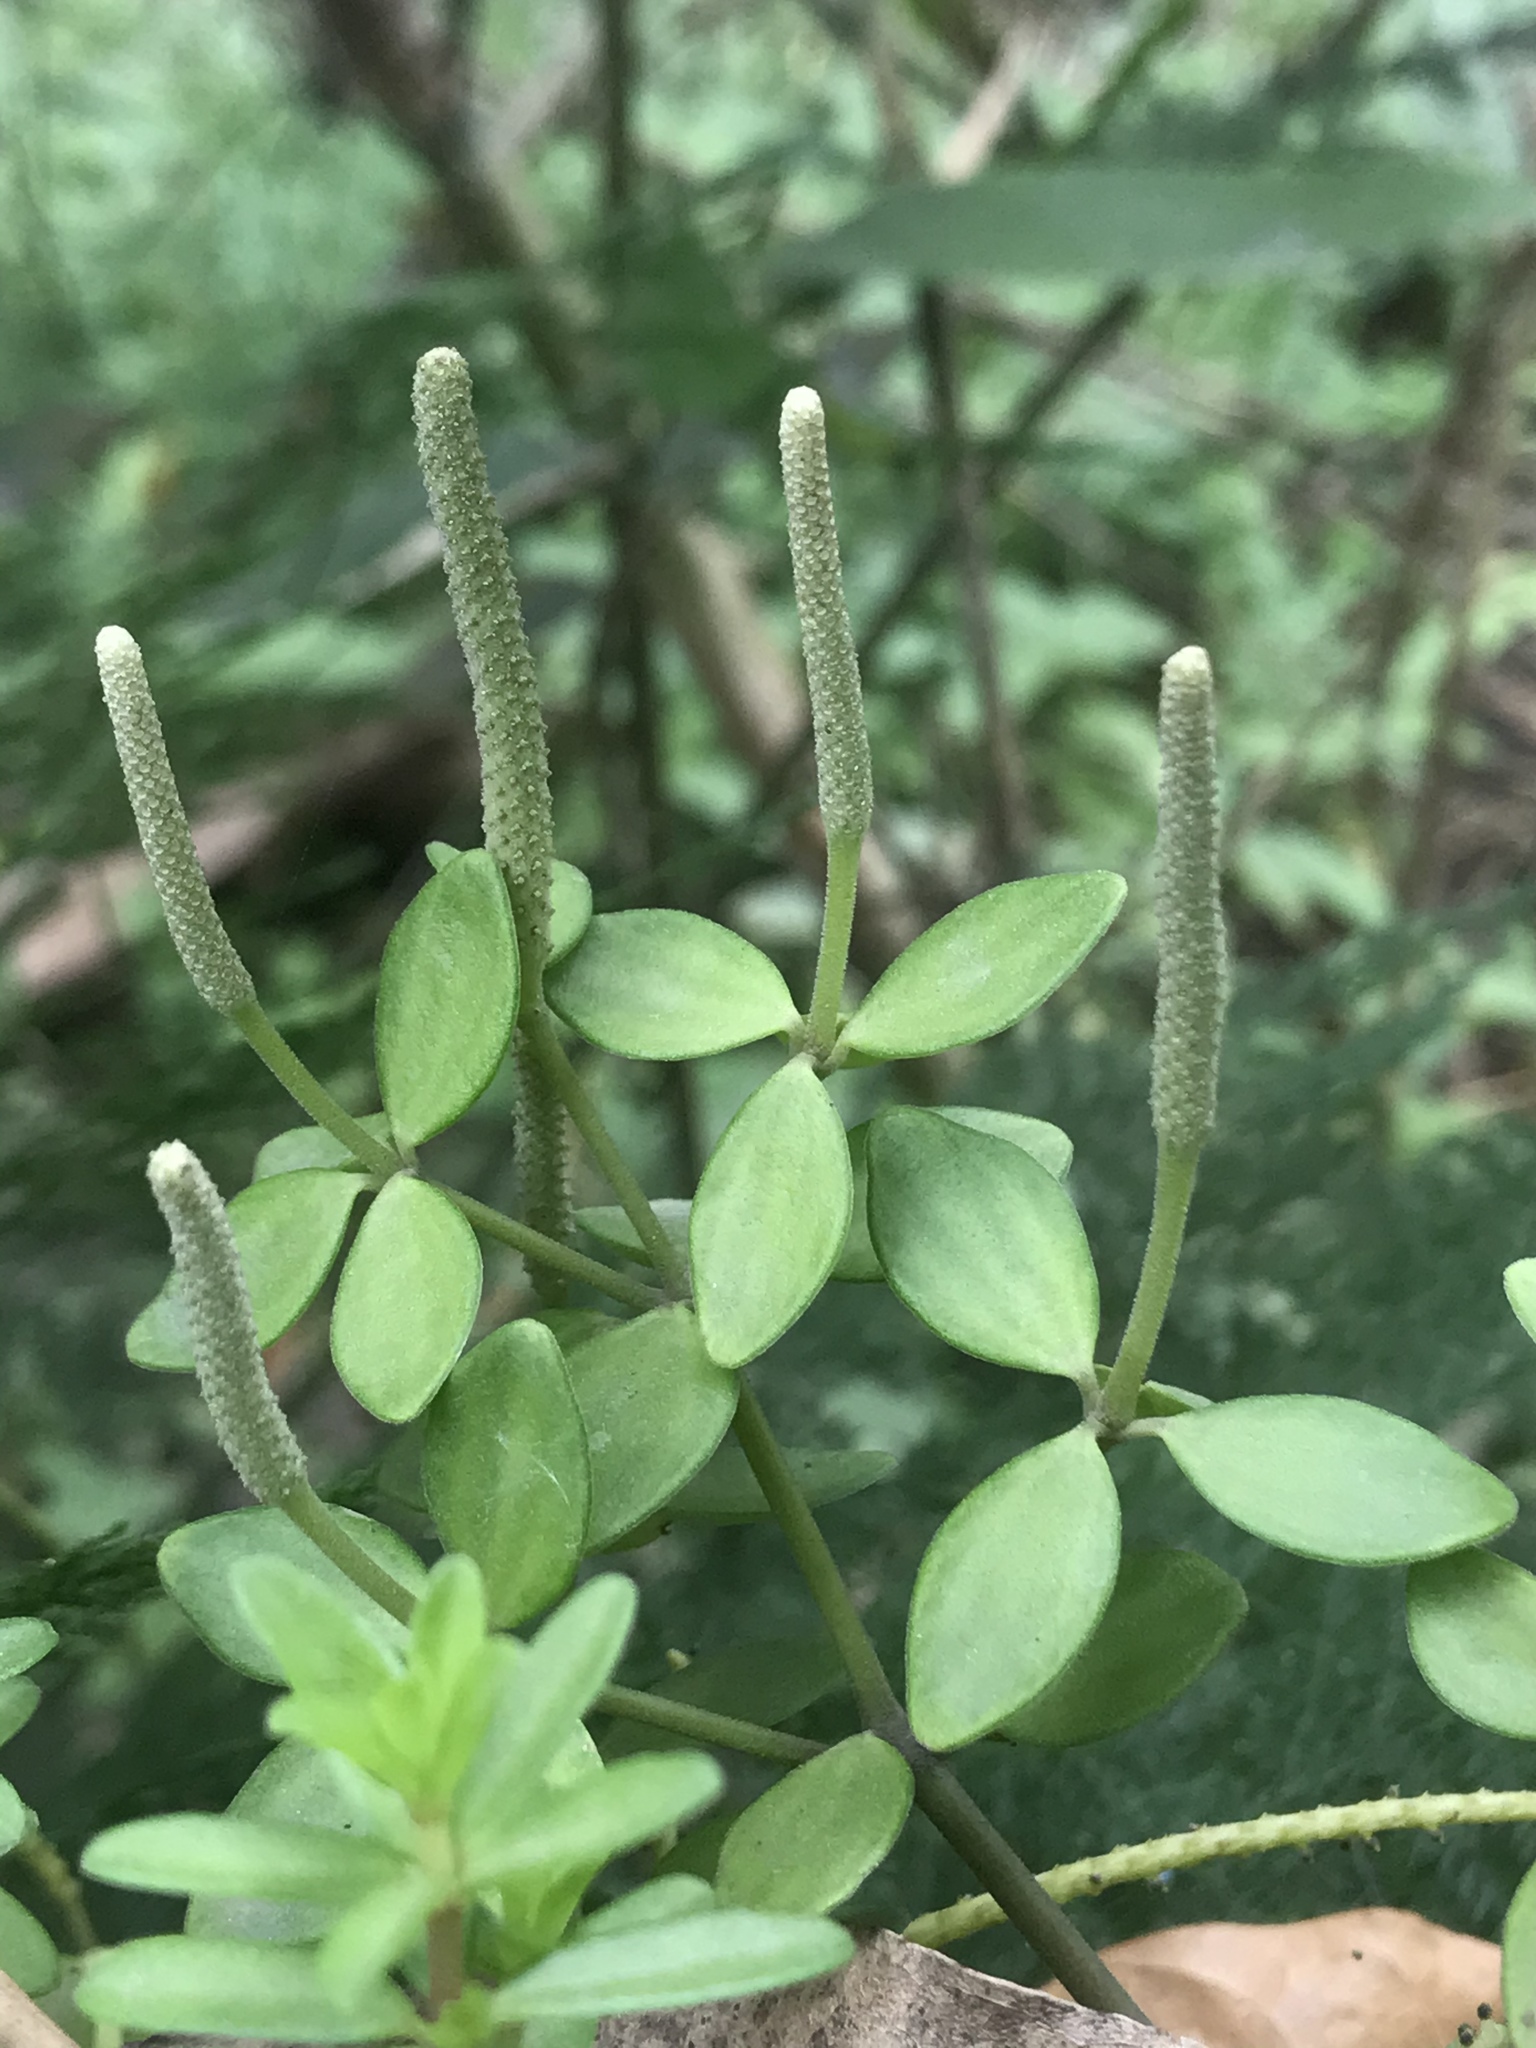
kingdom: Plantae
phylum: Tracheophyta
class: Magnoliopsida
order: Piperales
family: Piperaceae
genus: Peperomia
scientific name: Peperomia tetraphylla
